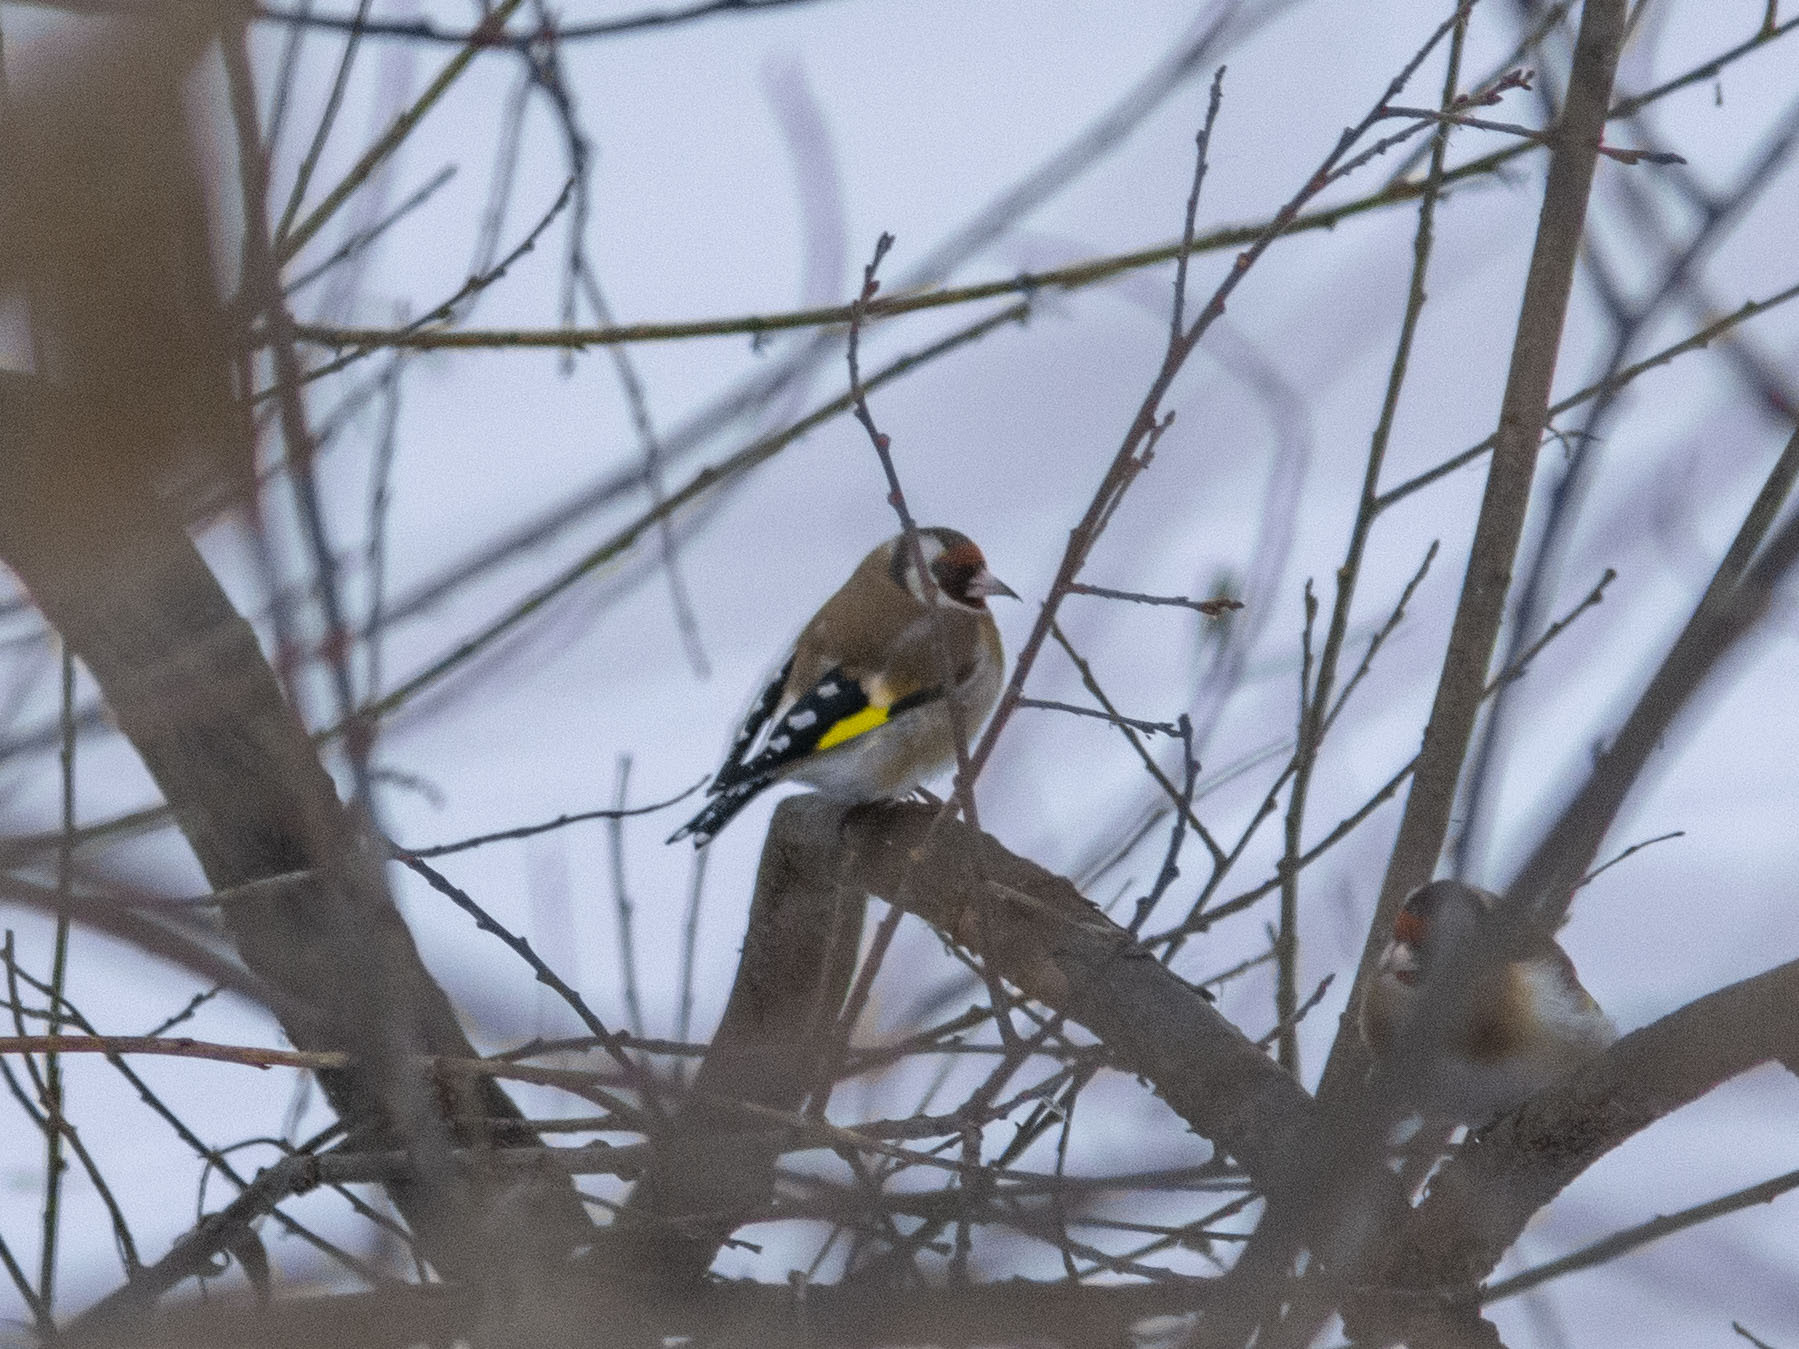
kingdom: Animalia
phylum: Chordata
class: Aves
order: Passeriformes
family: Fringillidae
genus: Carduelis
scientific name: Carduelis carduelis
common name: European goldfinch
